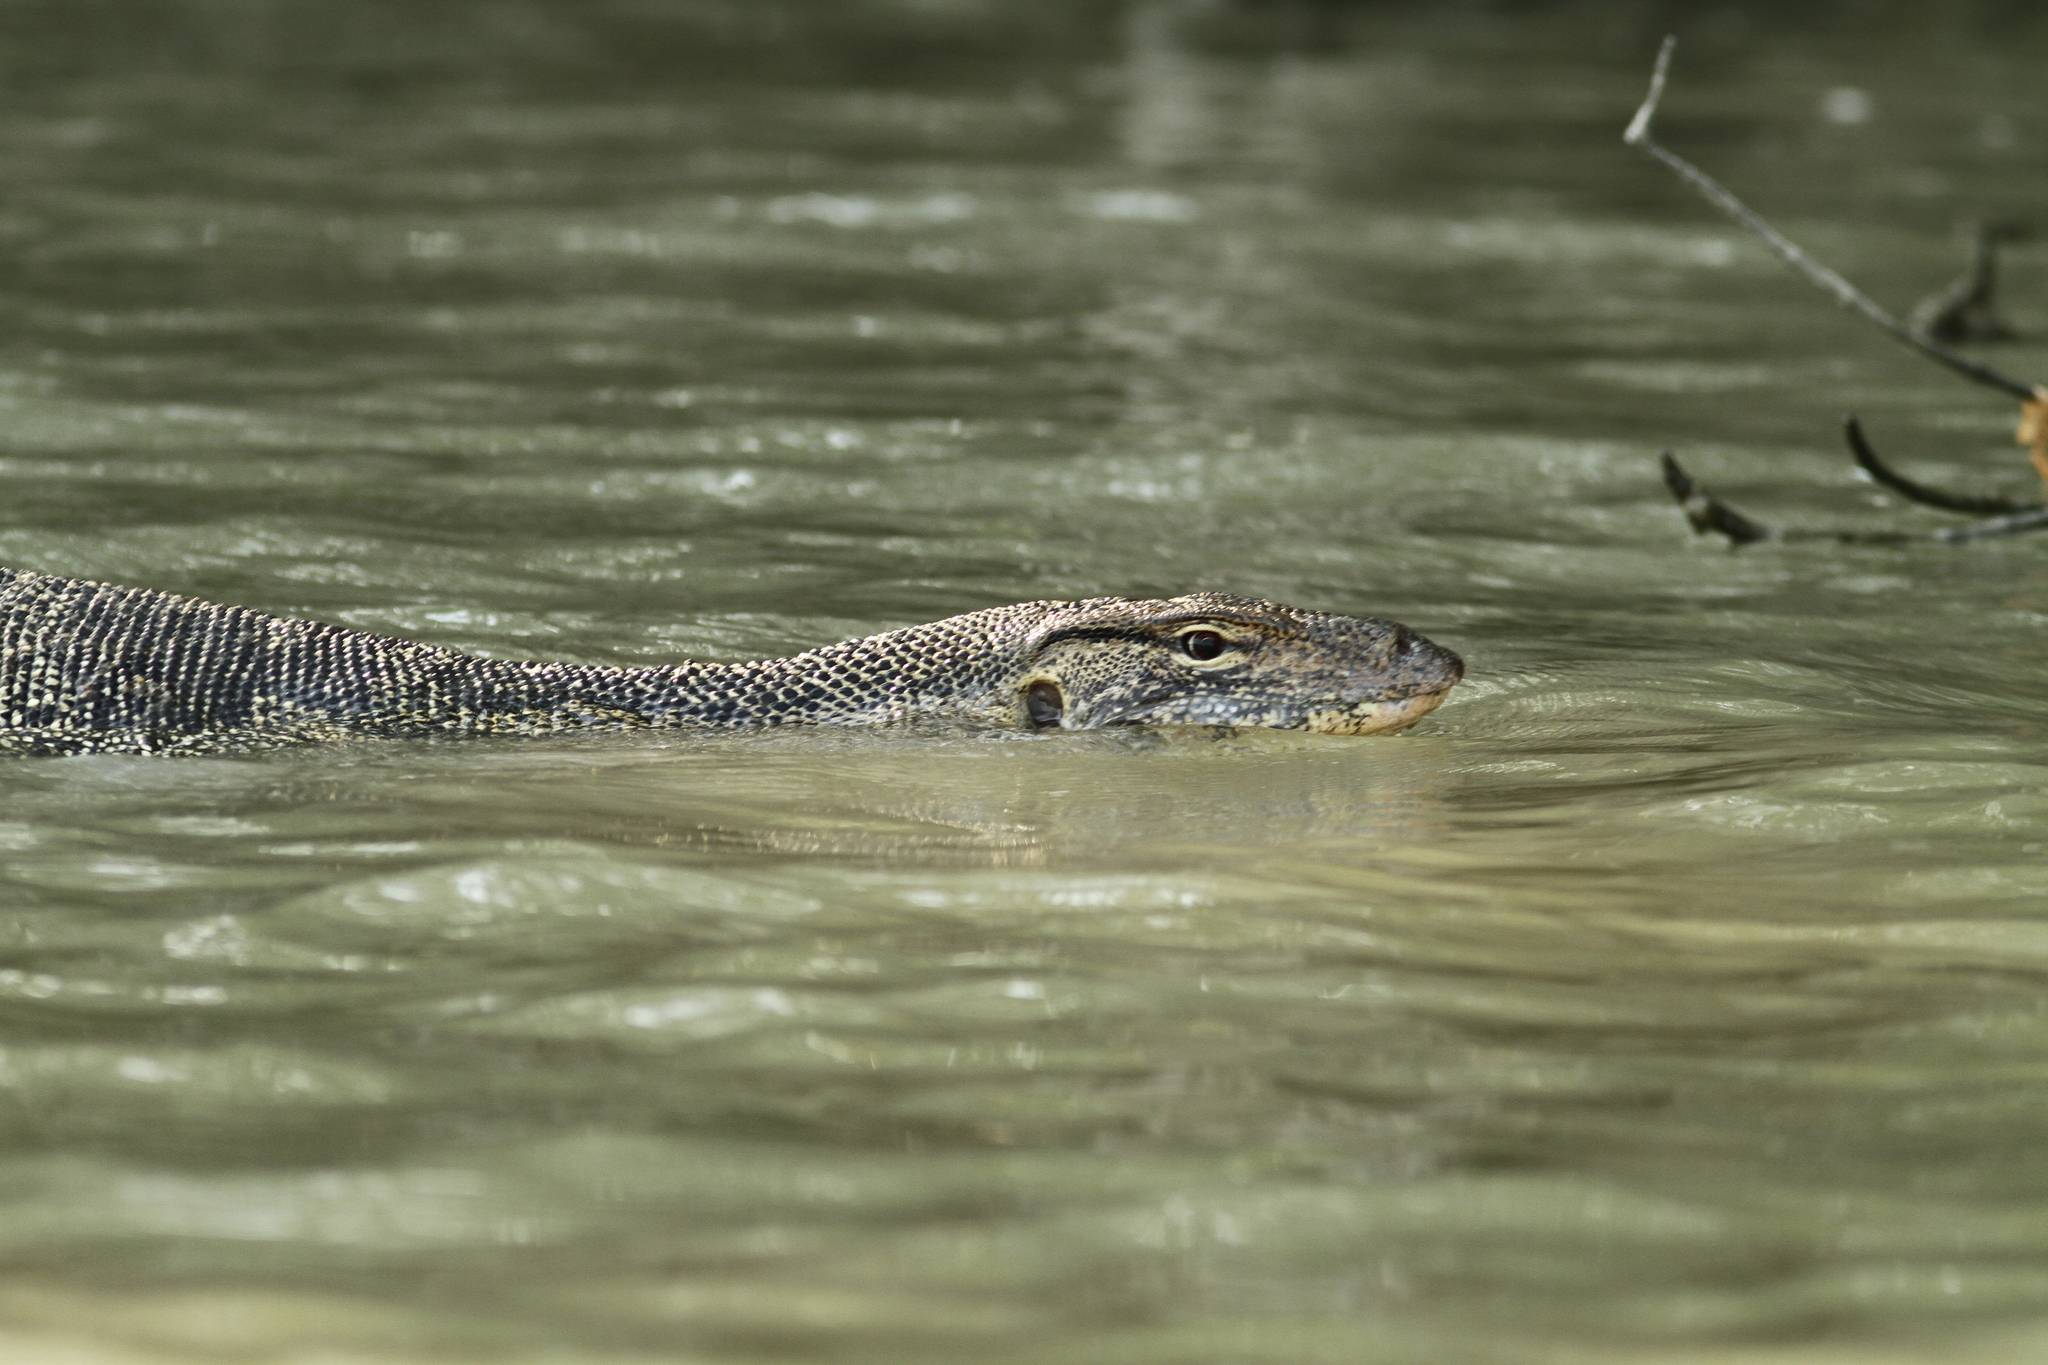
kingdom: Animalia
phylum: Chordata
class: Squamata
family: Varanidae
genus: Varanus
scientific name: Varanus salvator
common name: Common water monitor
